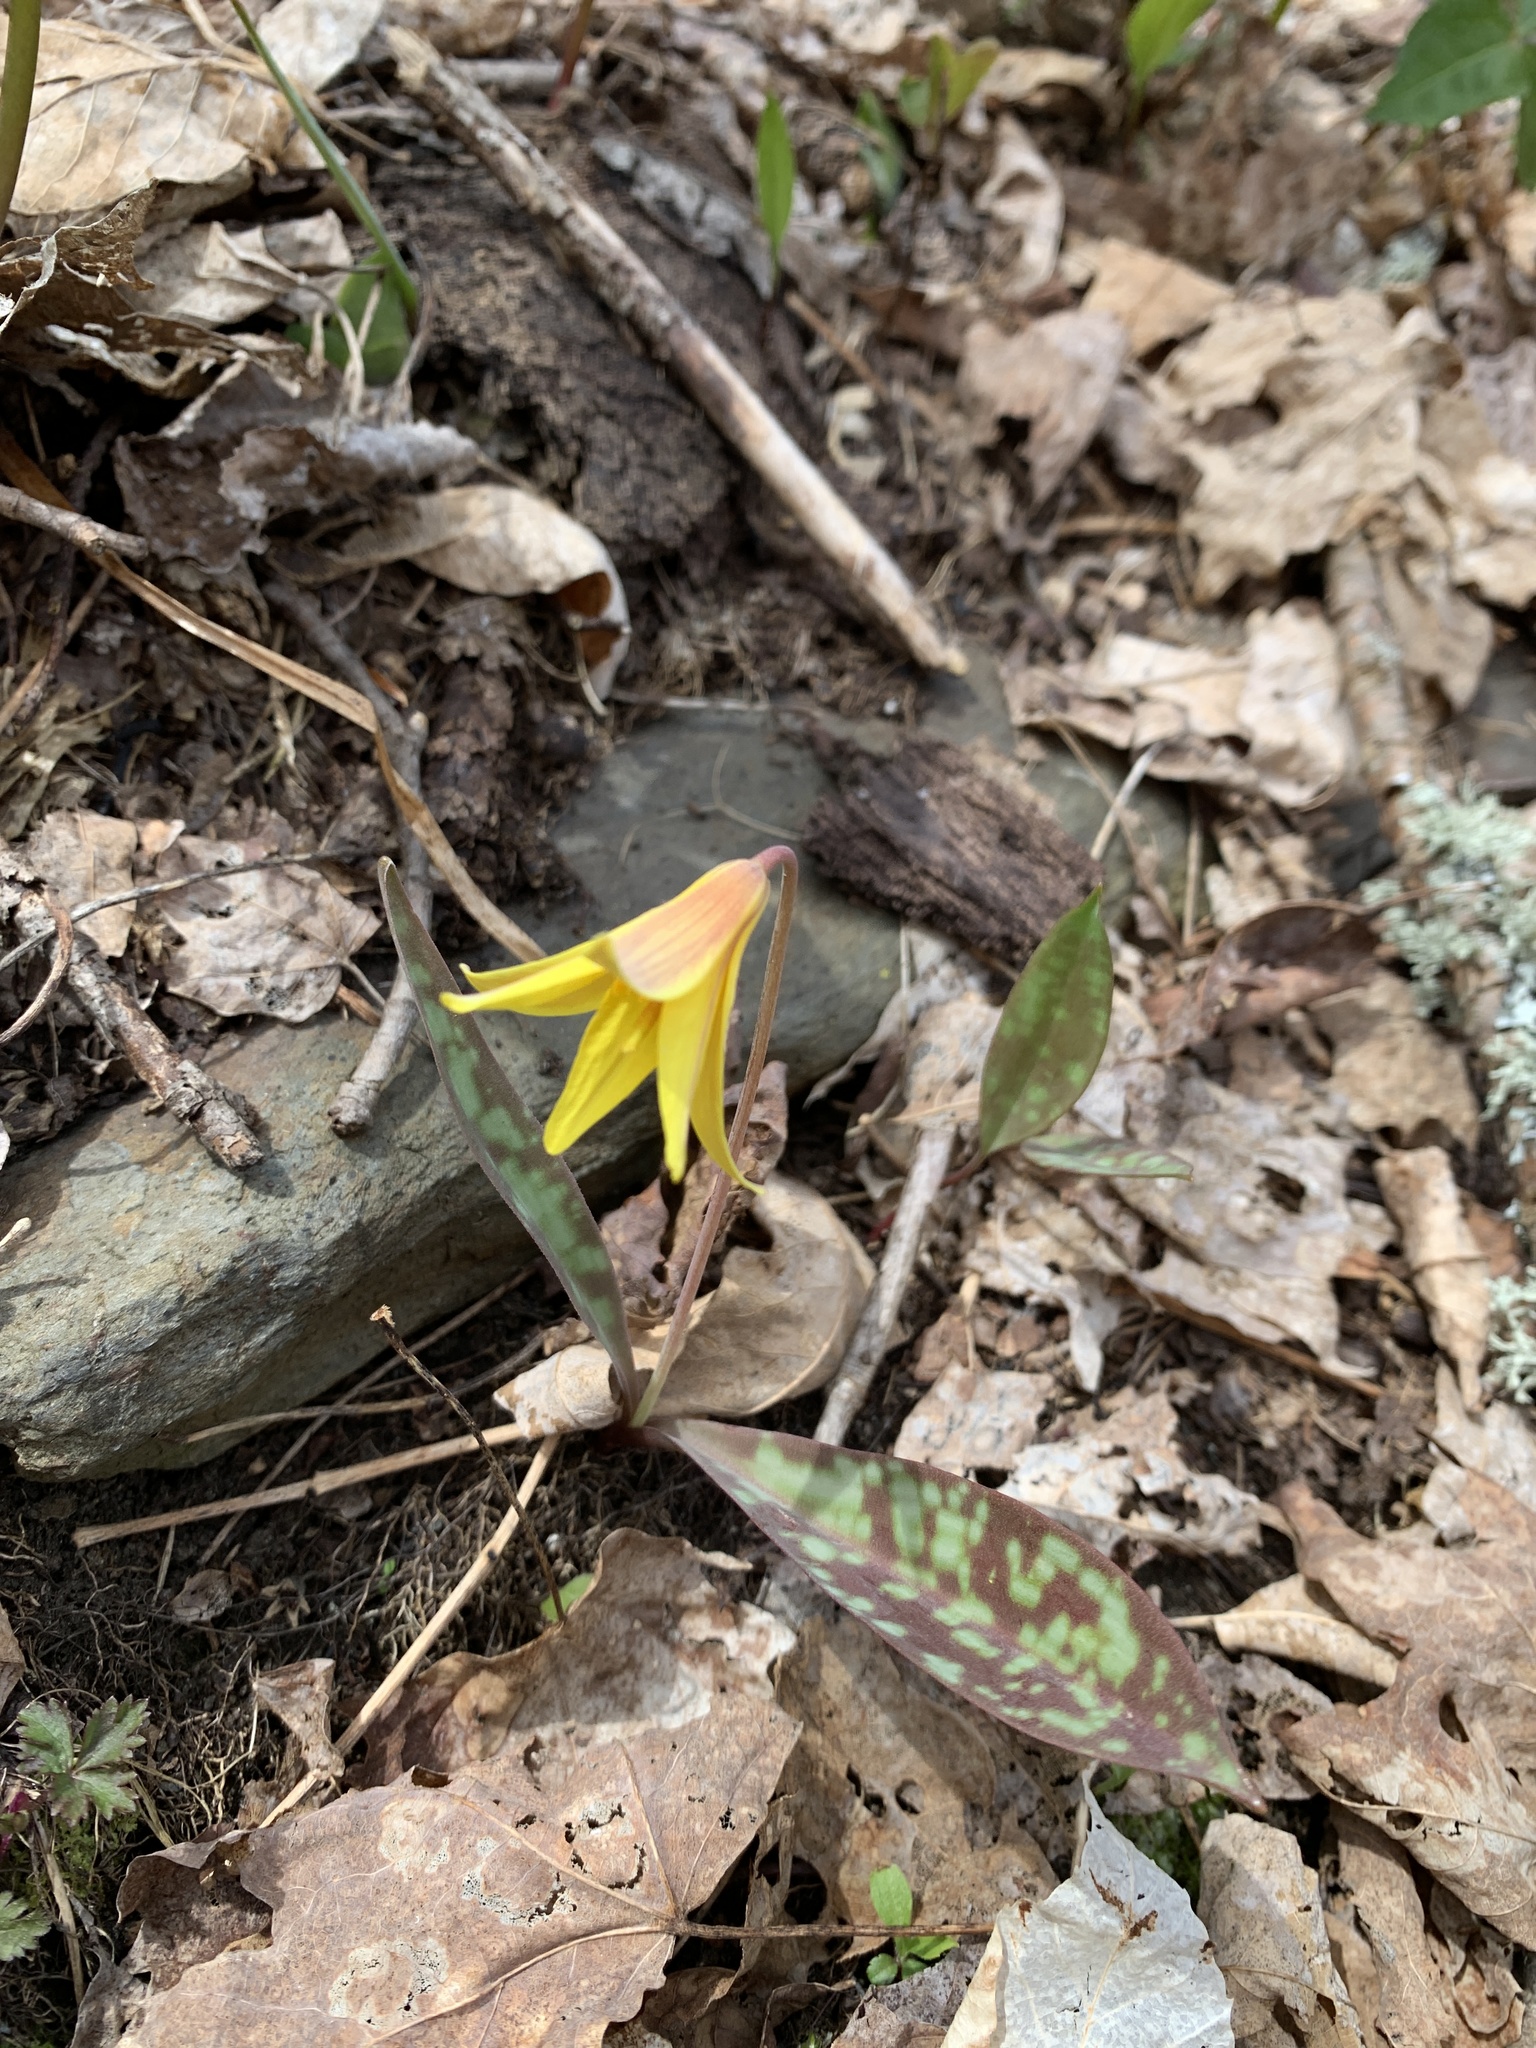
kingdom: Plantae
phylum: Tracheophyta
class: Liliopsida
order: Liliales
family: Liliaceae
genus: Erythronium
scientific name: Erythronium americanum
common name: Yellow adder's-tongue
